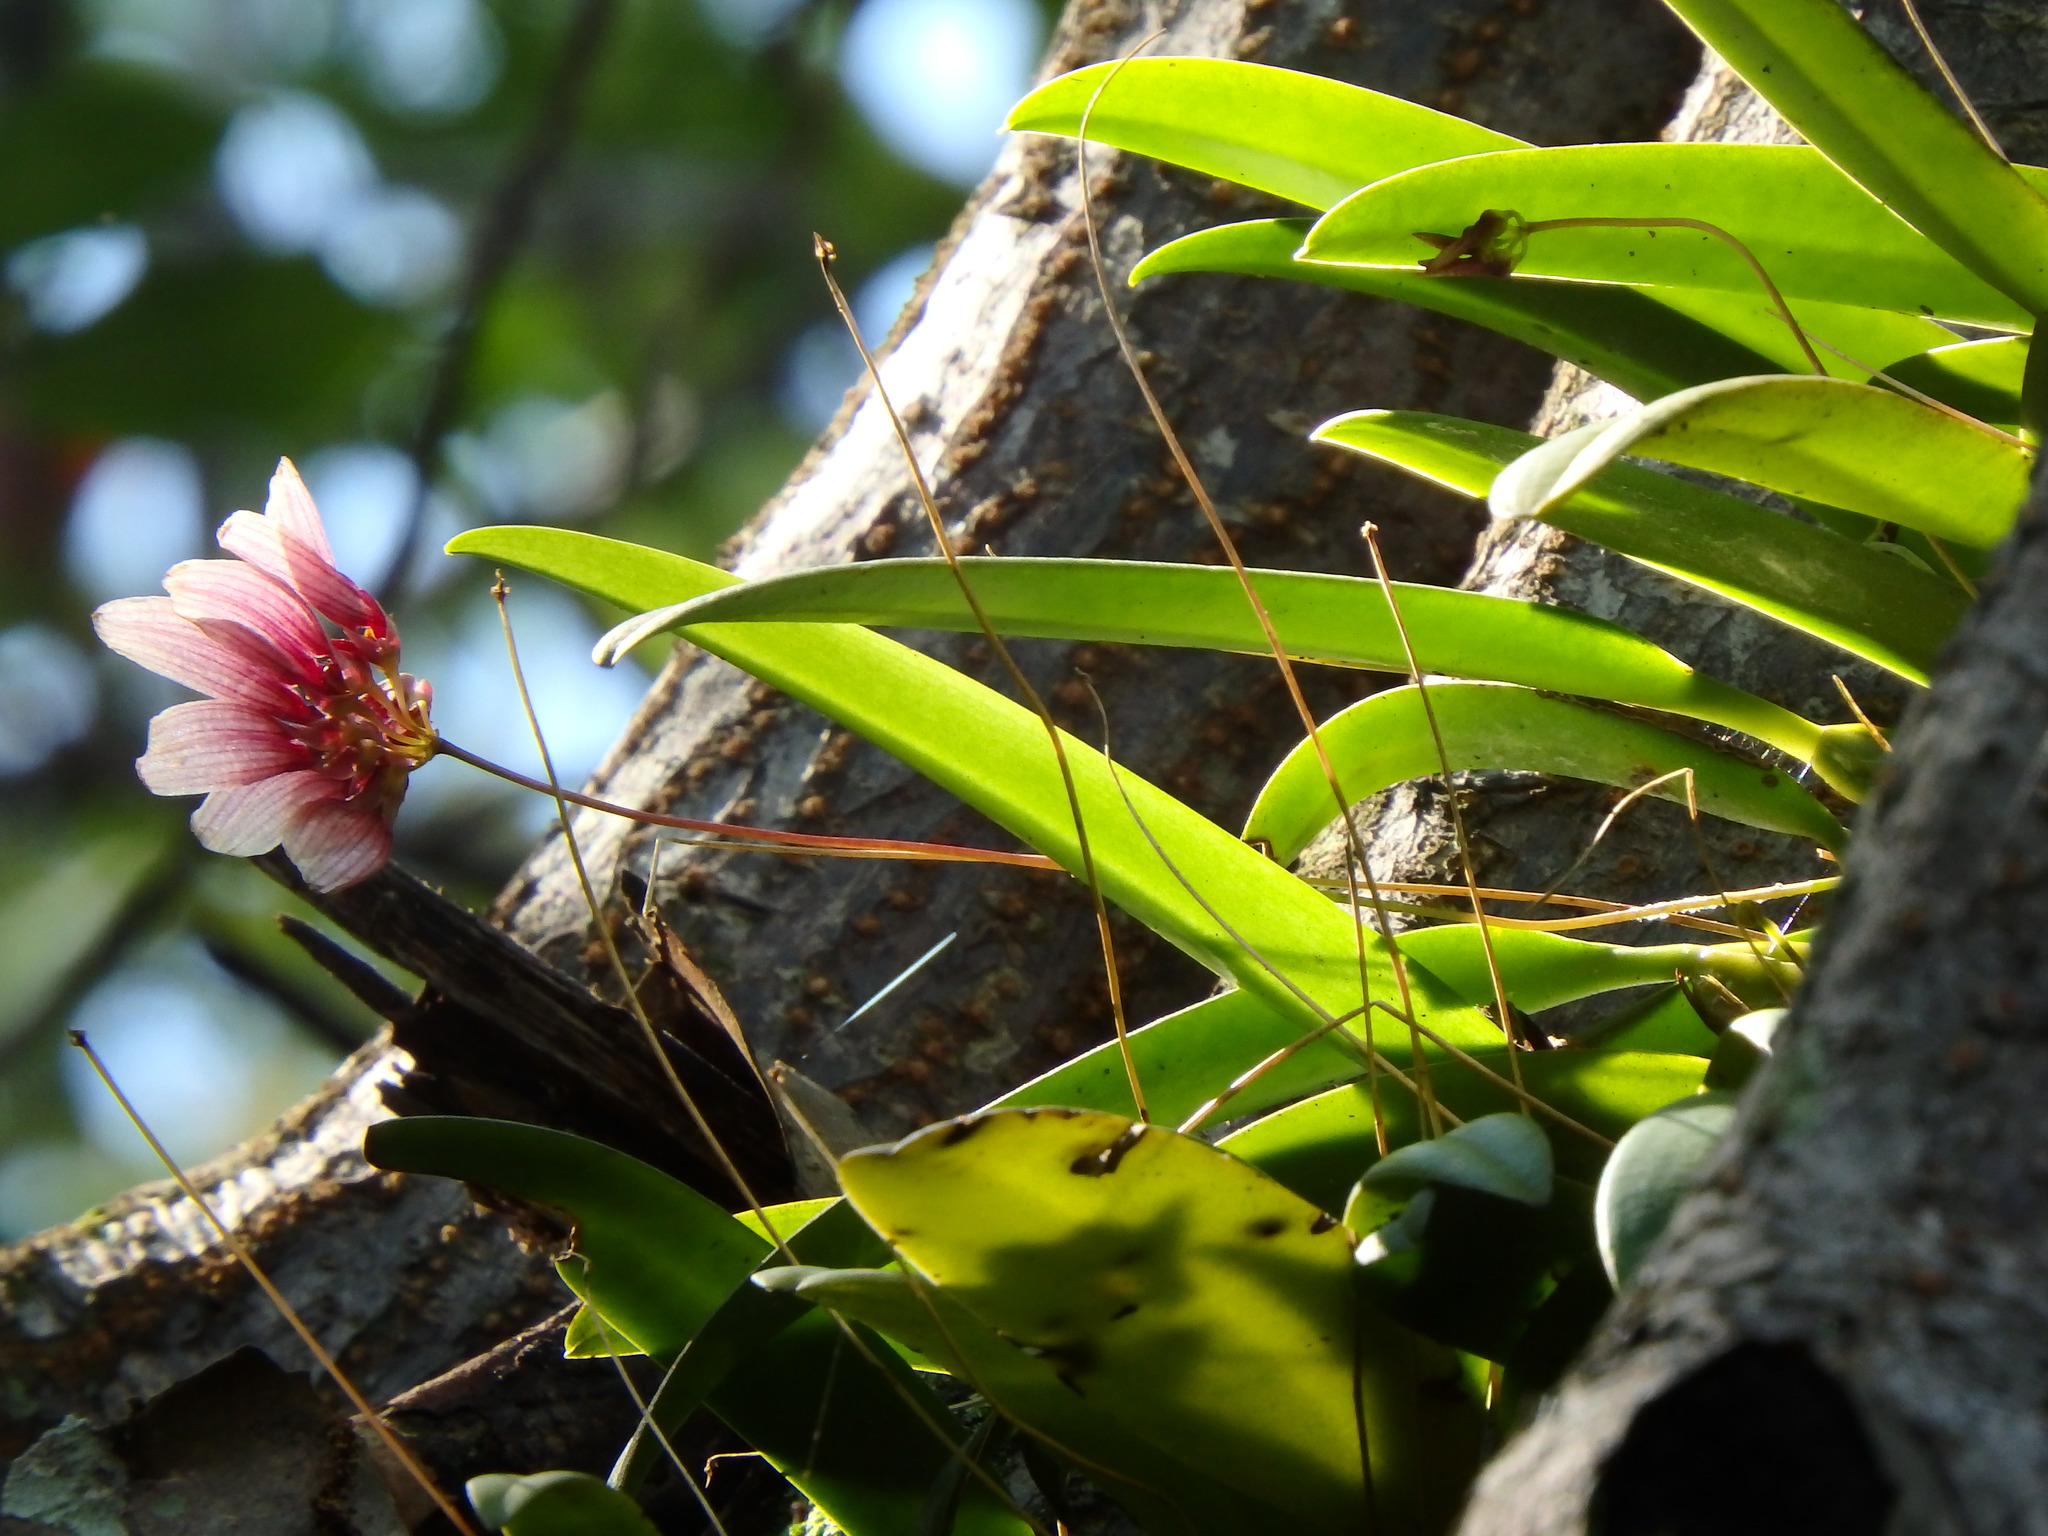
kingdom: Plantae
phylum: Tracheophyta
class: Liliopsida
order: Asparagales
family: Orchidaceae
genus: Bulbophyllum
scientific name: Bulbophyllum lepidum
